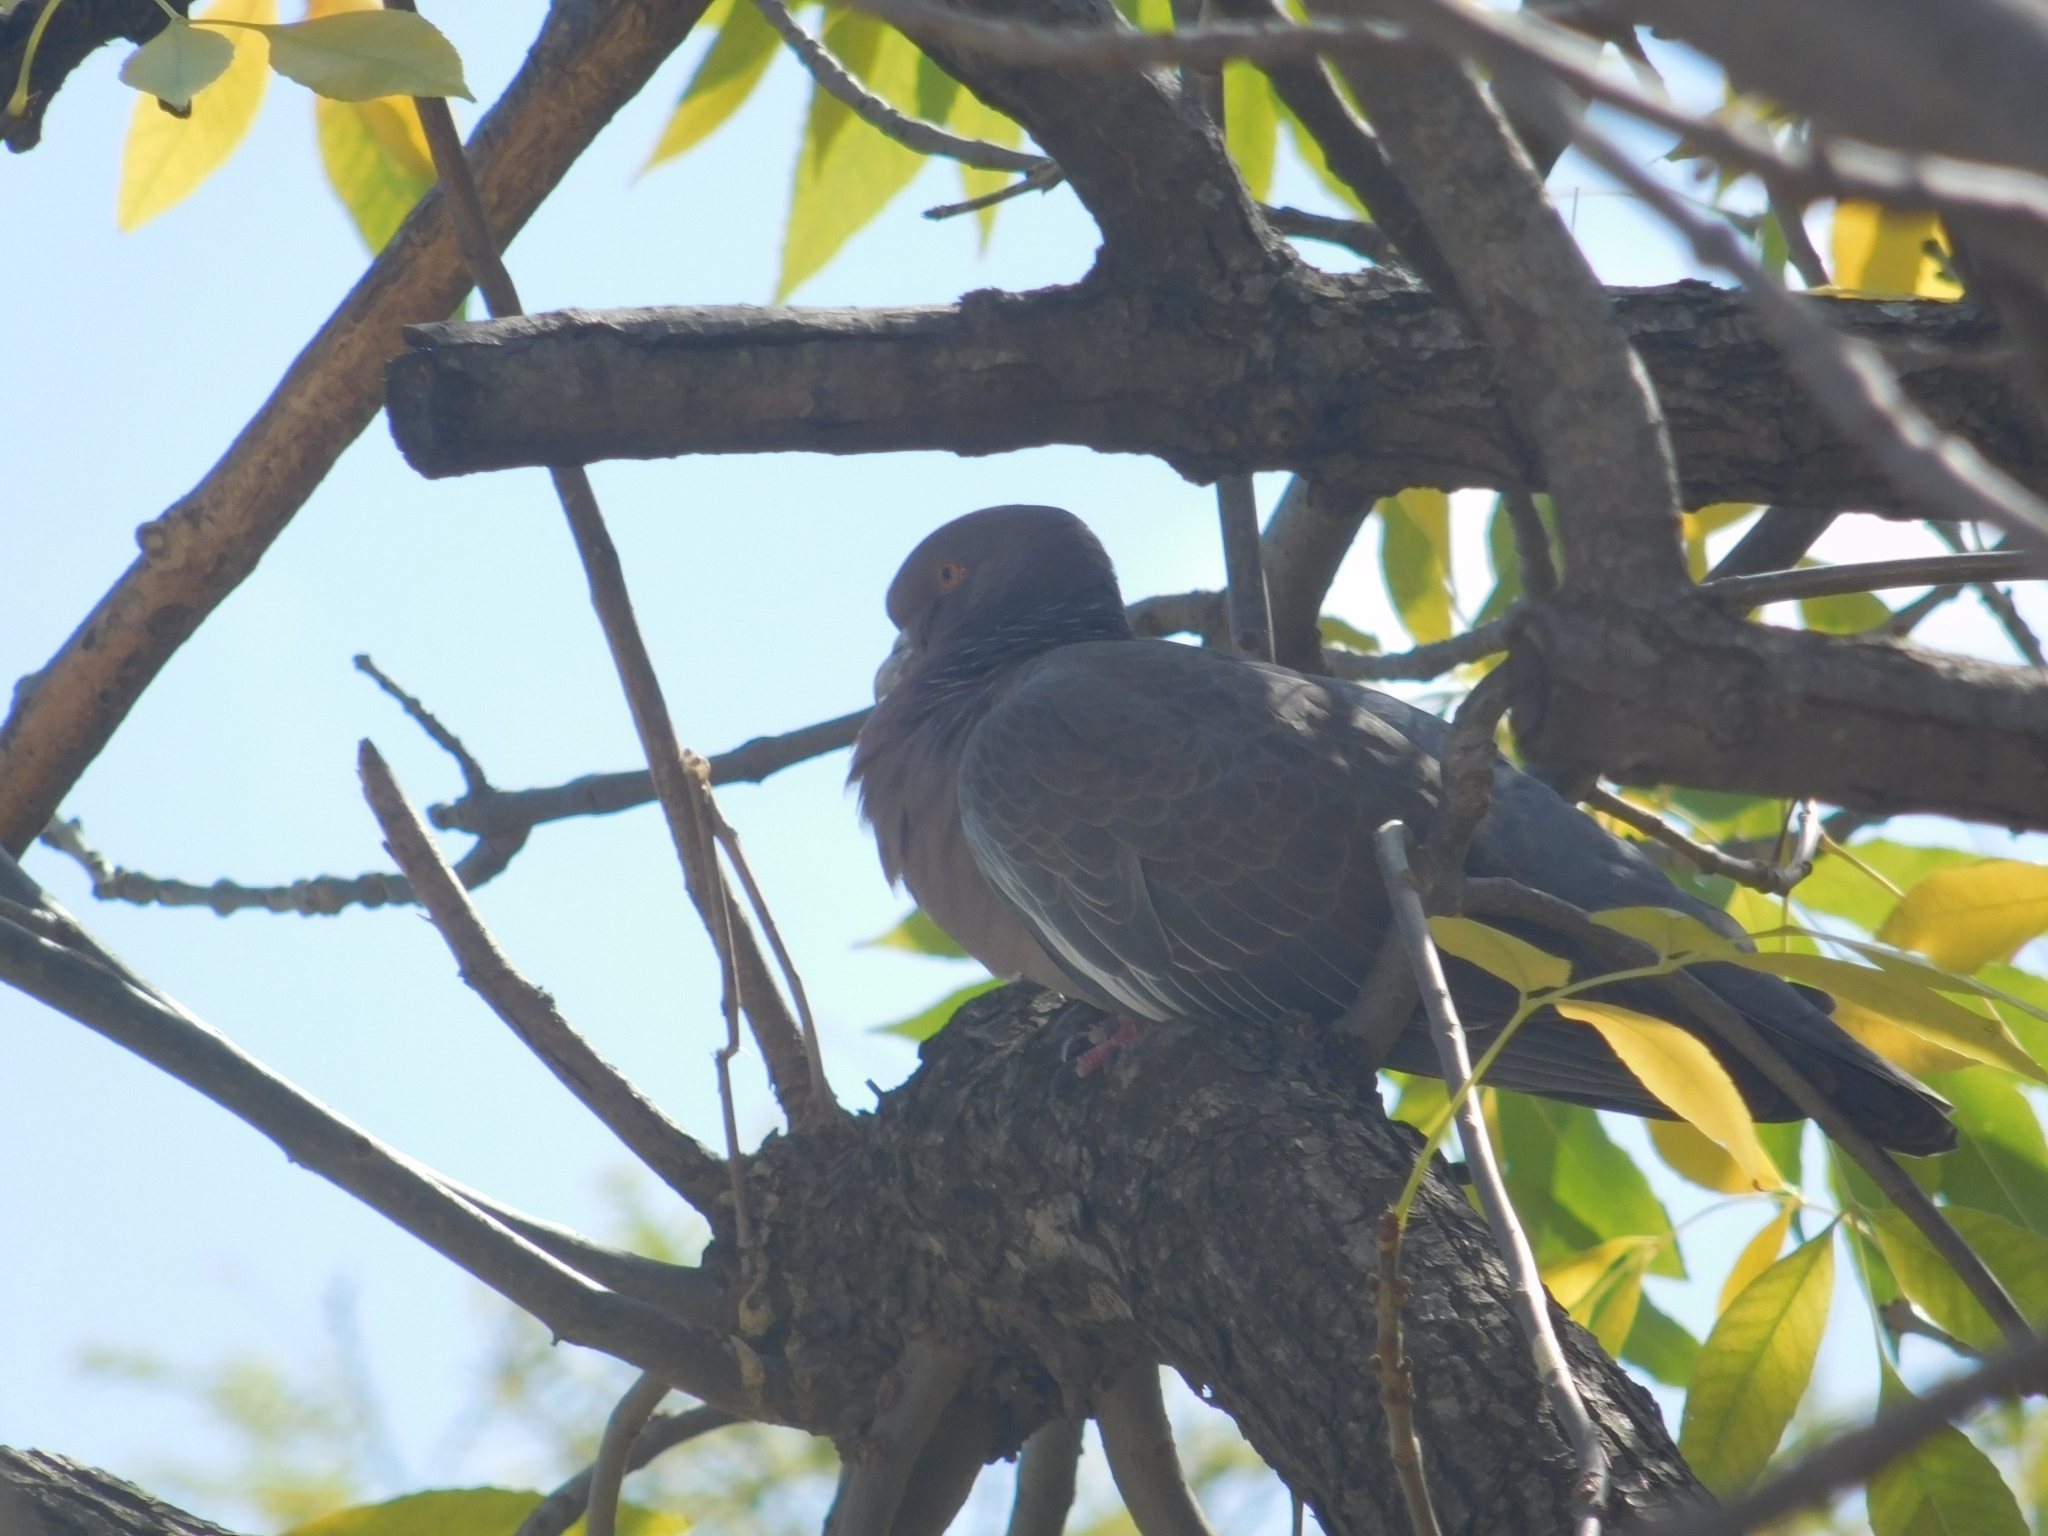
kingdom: Animalia
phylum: Chordata
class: Aves
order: Columbiformes
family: Columbidae
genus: Patagioenas
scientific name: Patagioenas picazuro
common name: Picazuro pigeon
